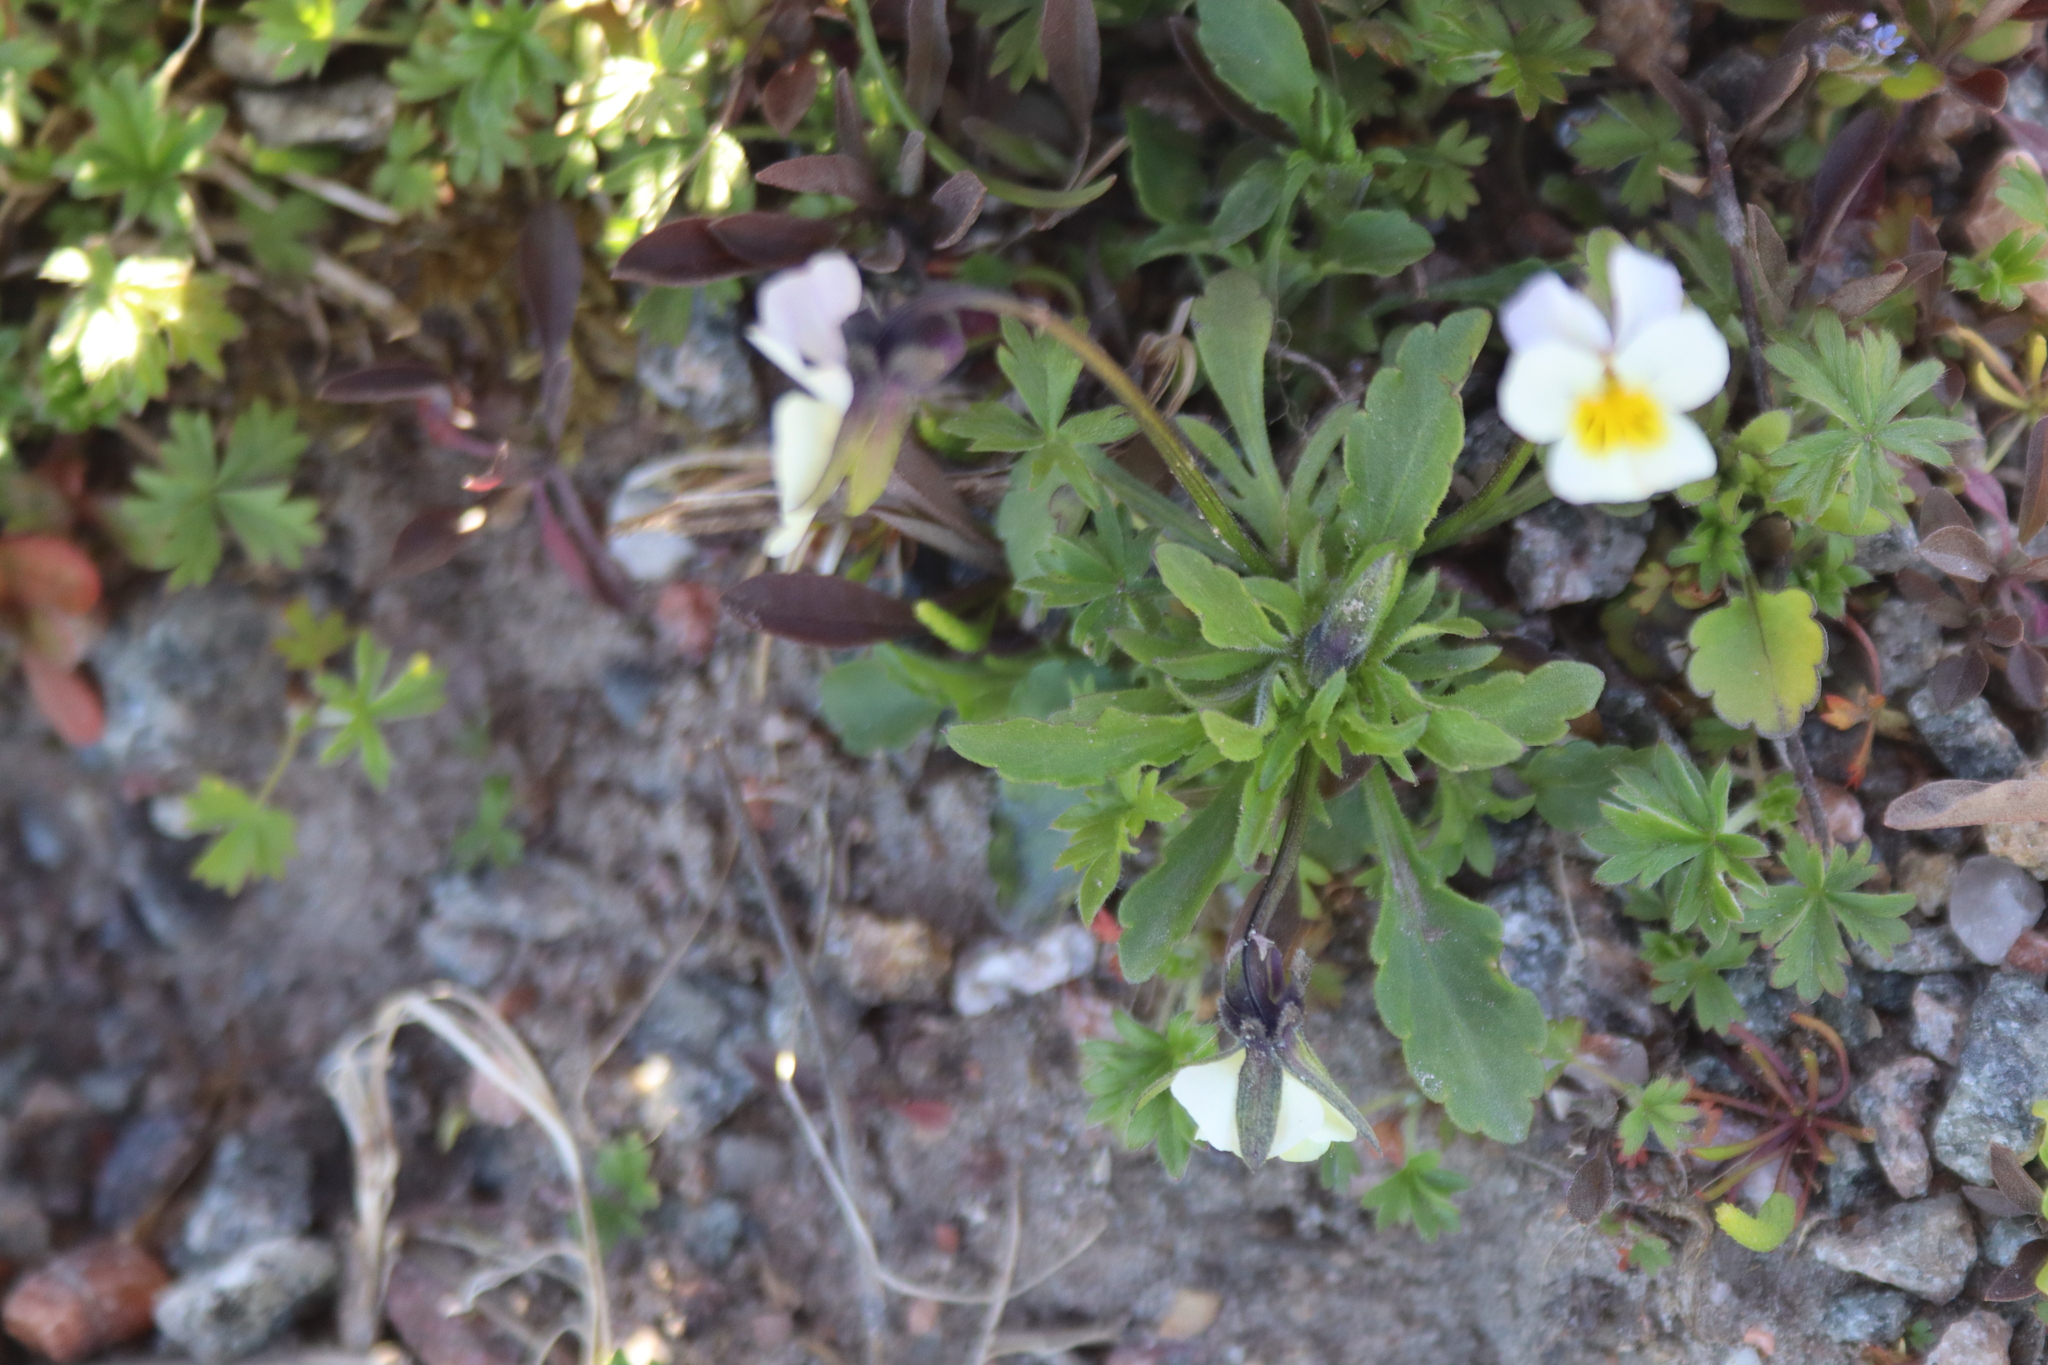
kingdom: Plantae
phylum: Tracheophyta
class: Magnoliopsida
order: Malpighiales
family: Violaceae
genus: Viola
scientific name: Viola arvensis
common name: Field pansy
